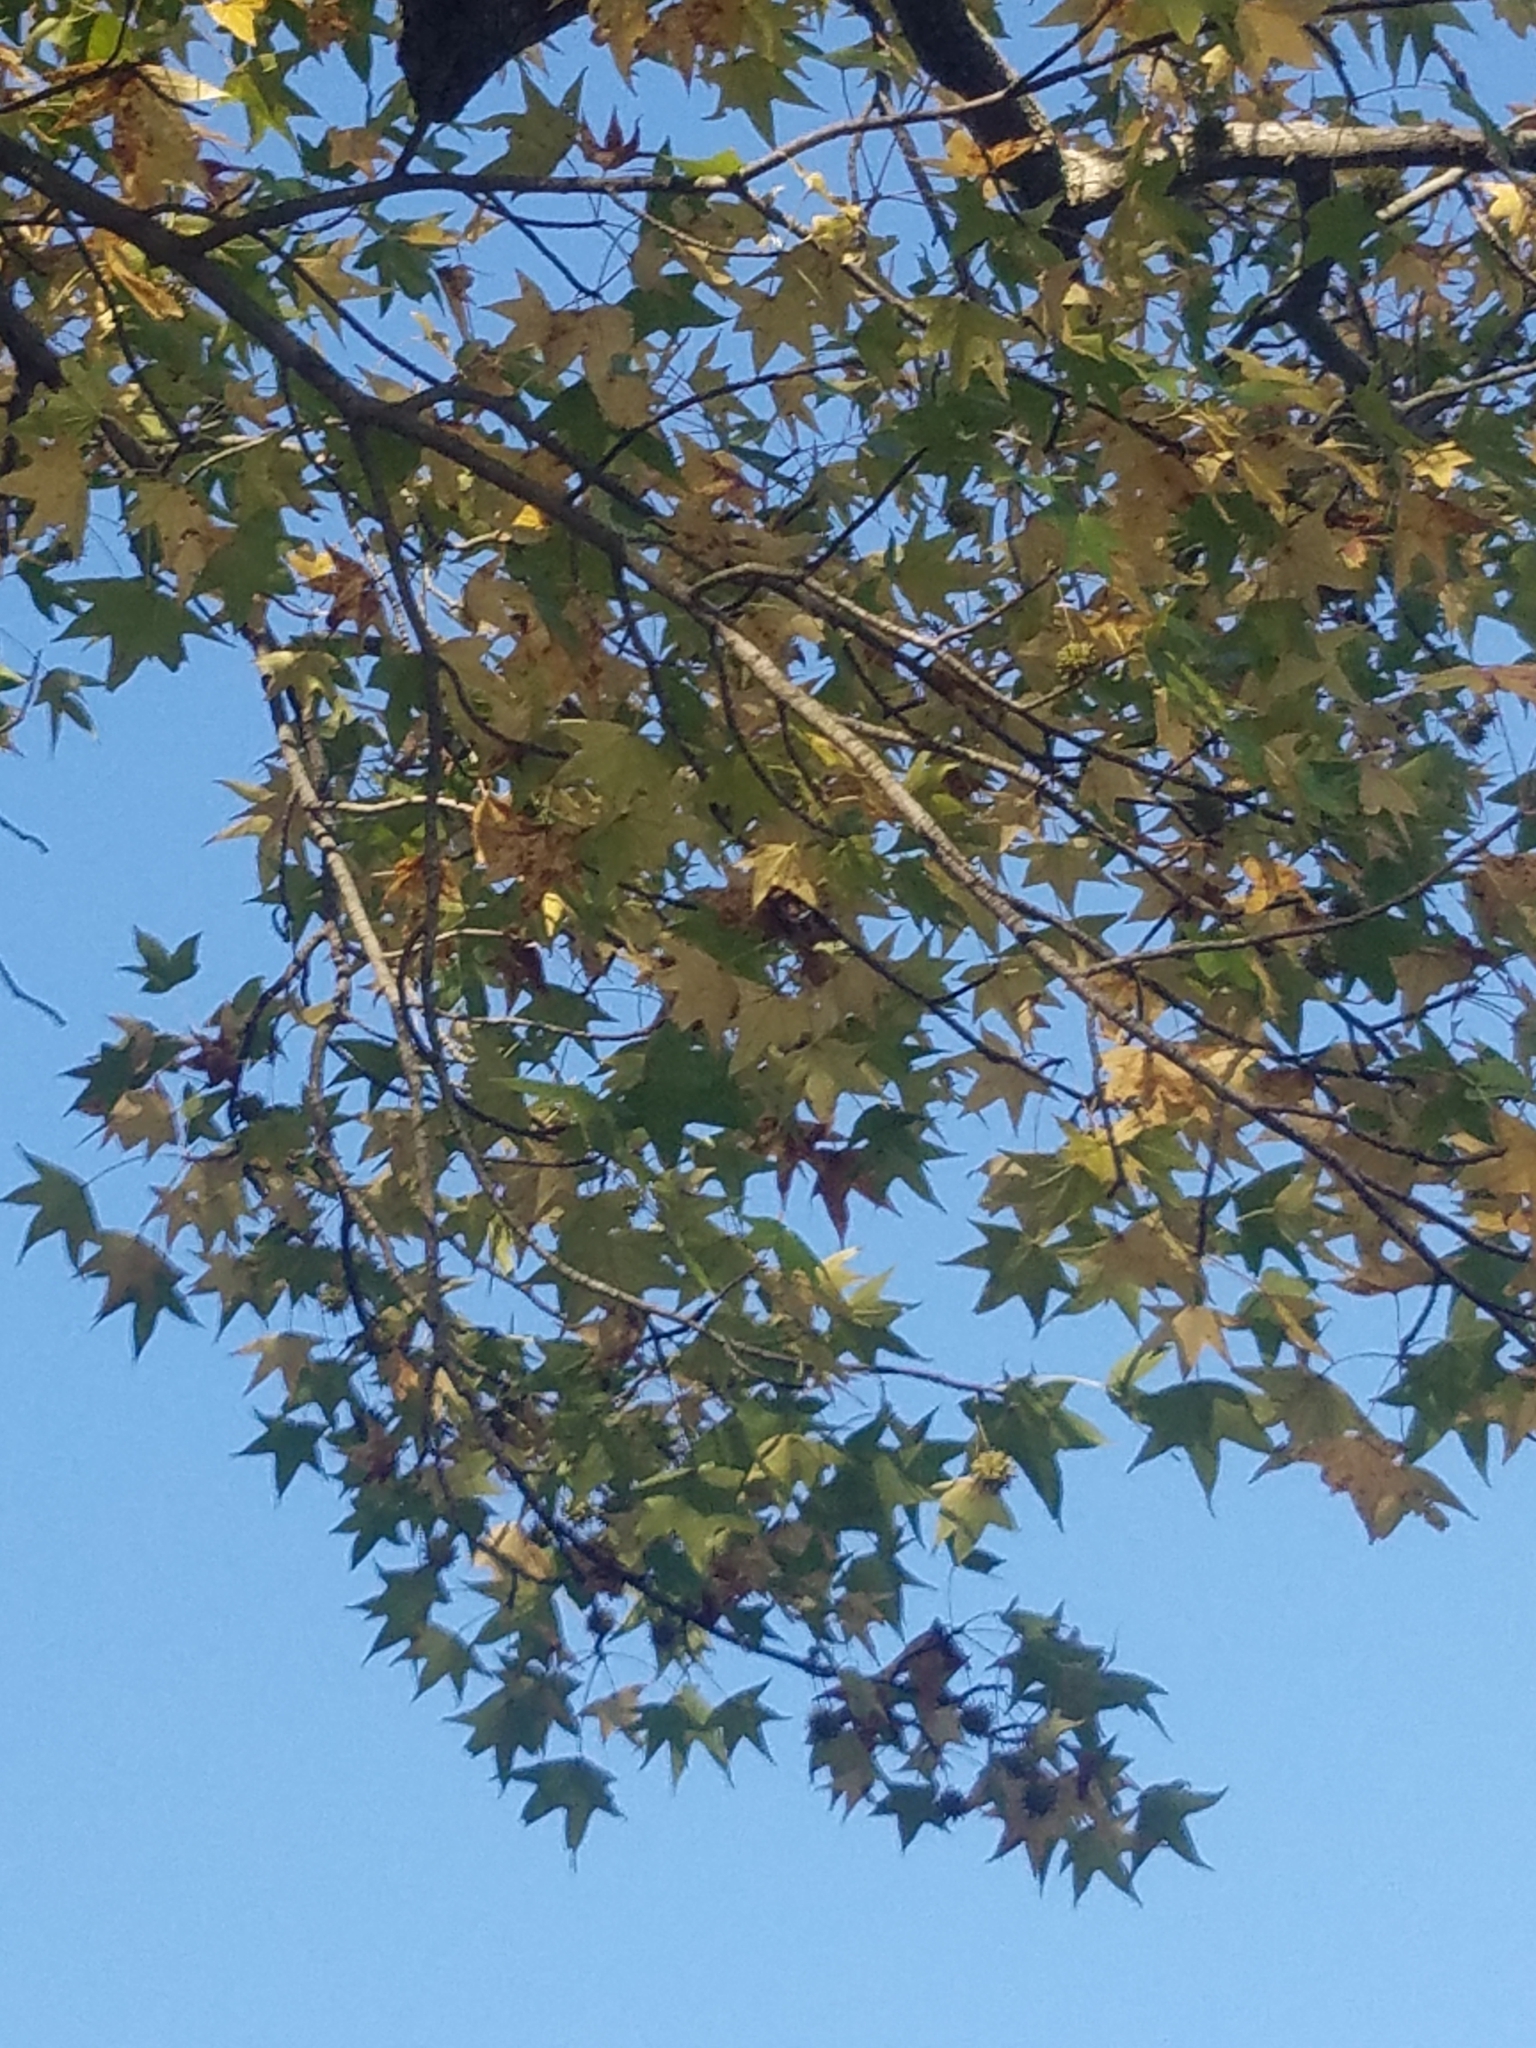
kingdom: Plantae
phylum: Tracheophyta
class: Magnoliopsida
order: Saxifragales
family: Altingiaceae
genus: Liquidambar
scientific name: Liquidambar styraciflua
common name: Sweet gum
